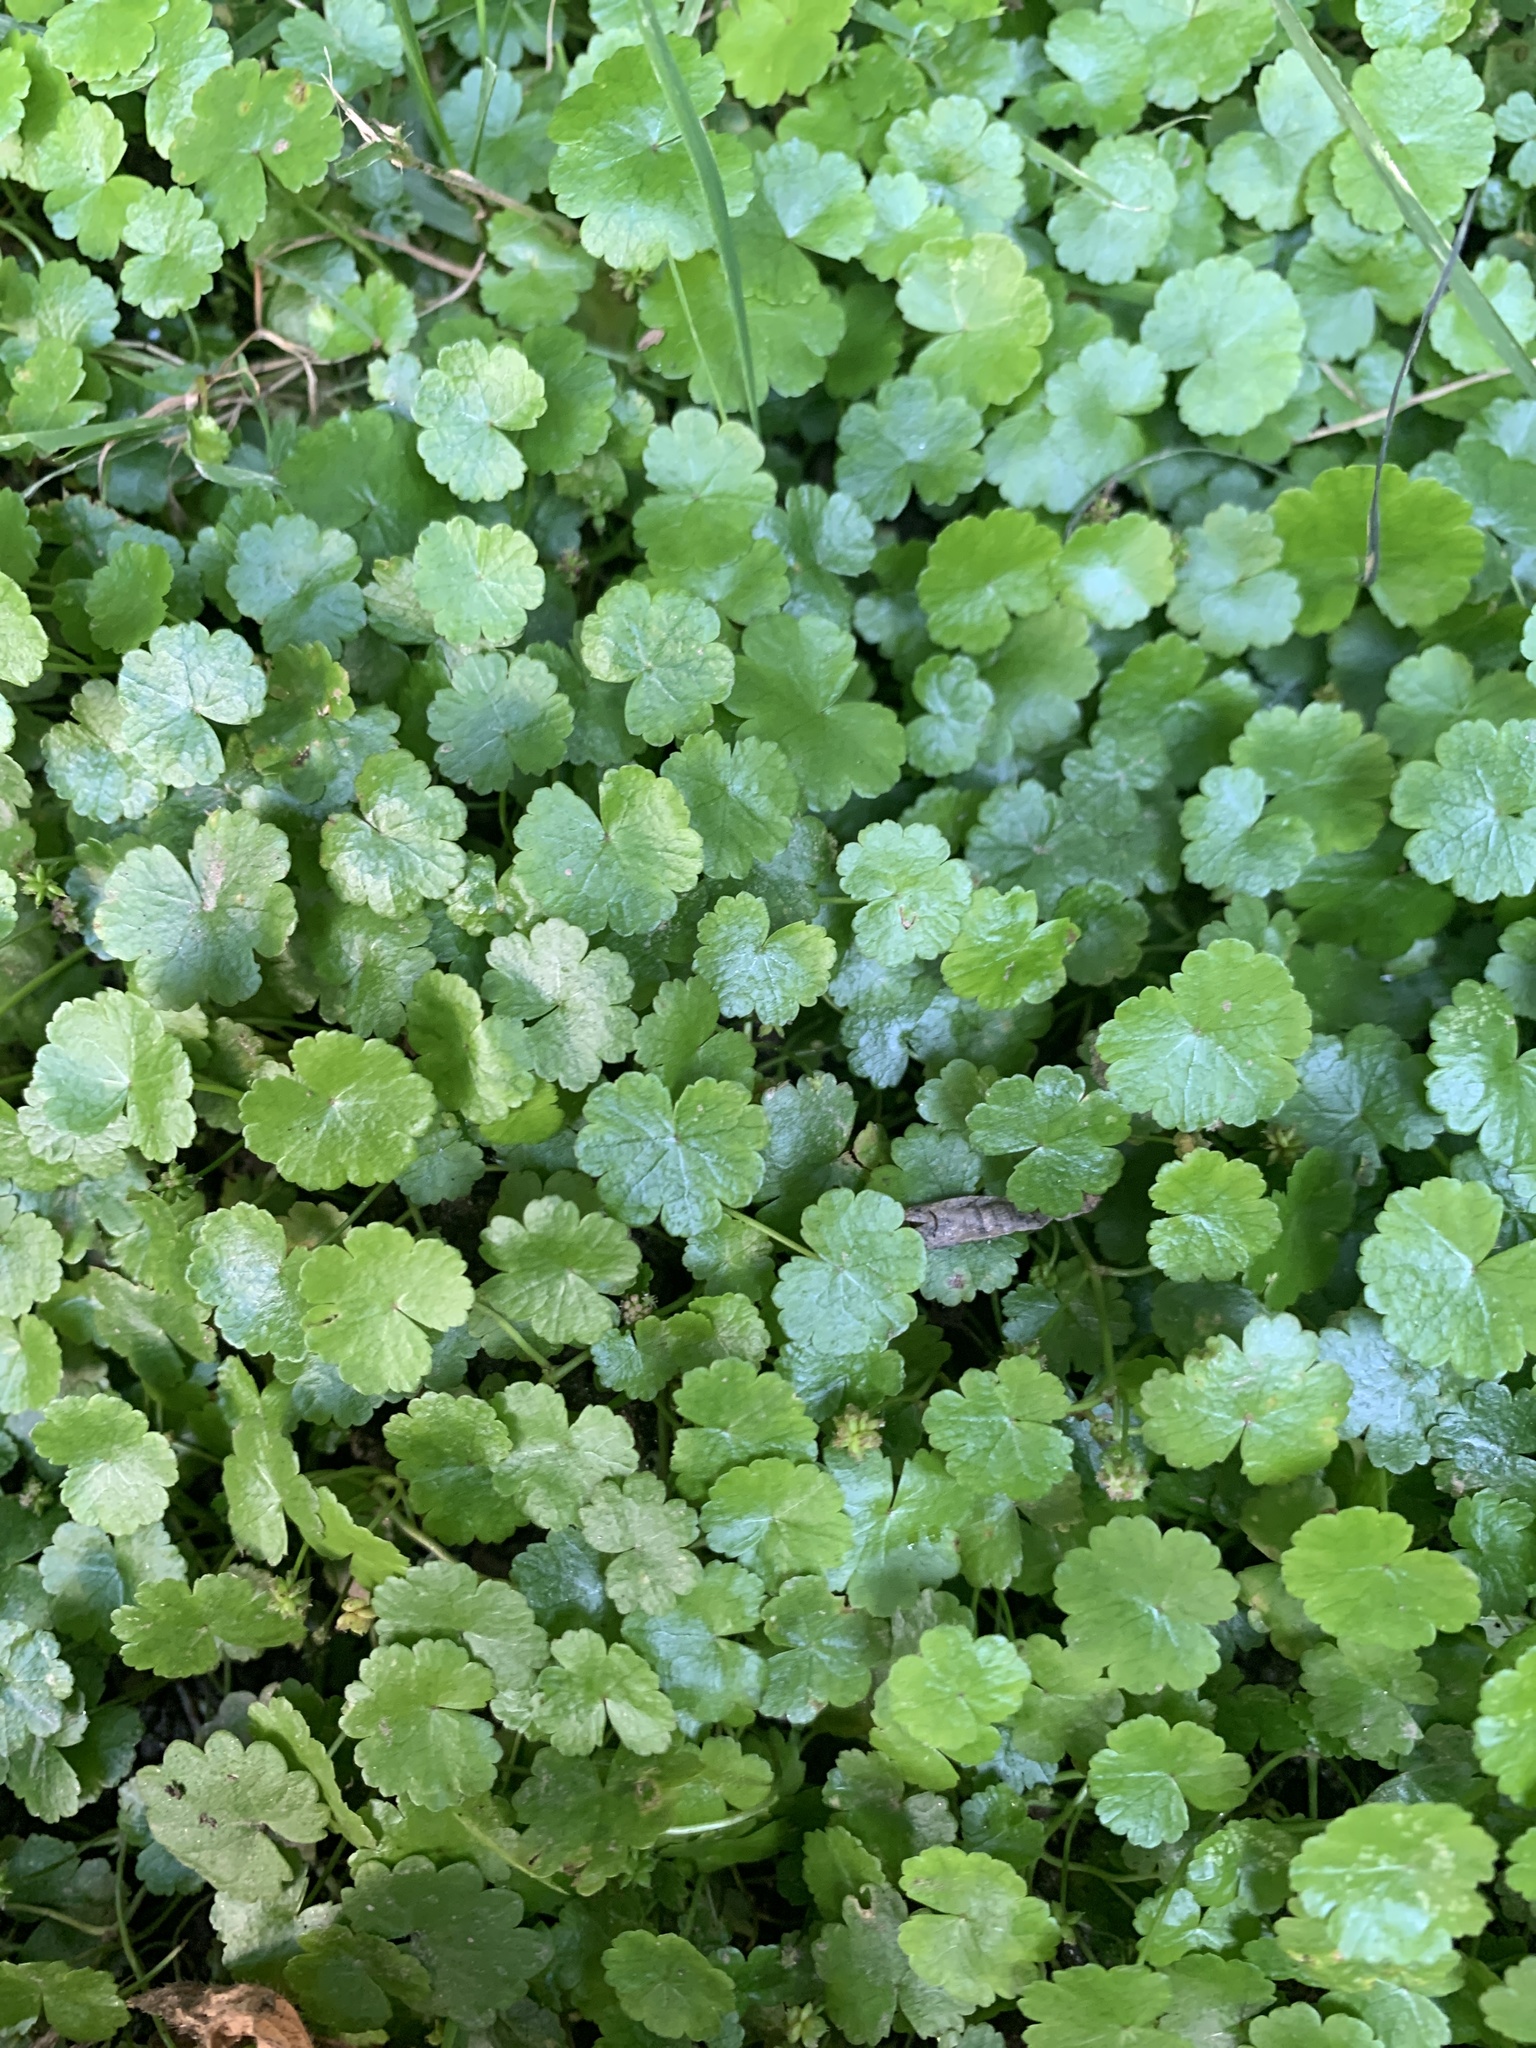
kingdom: Plantae
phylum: Tracheophyta
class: Magnoliopsida
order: Apiales
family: Araliaceae
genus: Hydrocotyle
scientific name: Hydrocotyle sibthorpioides
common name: Lawn marshpennywort
